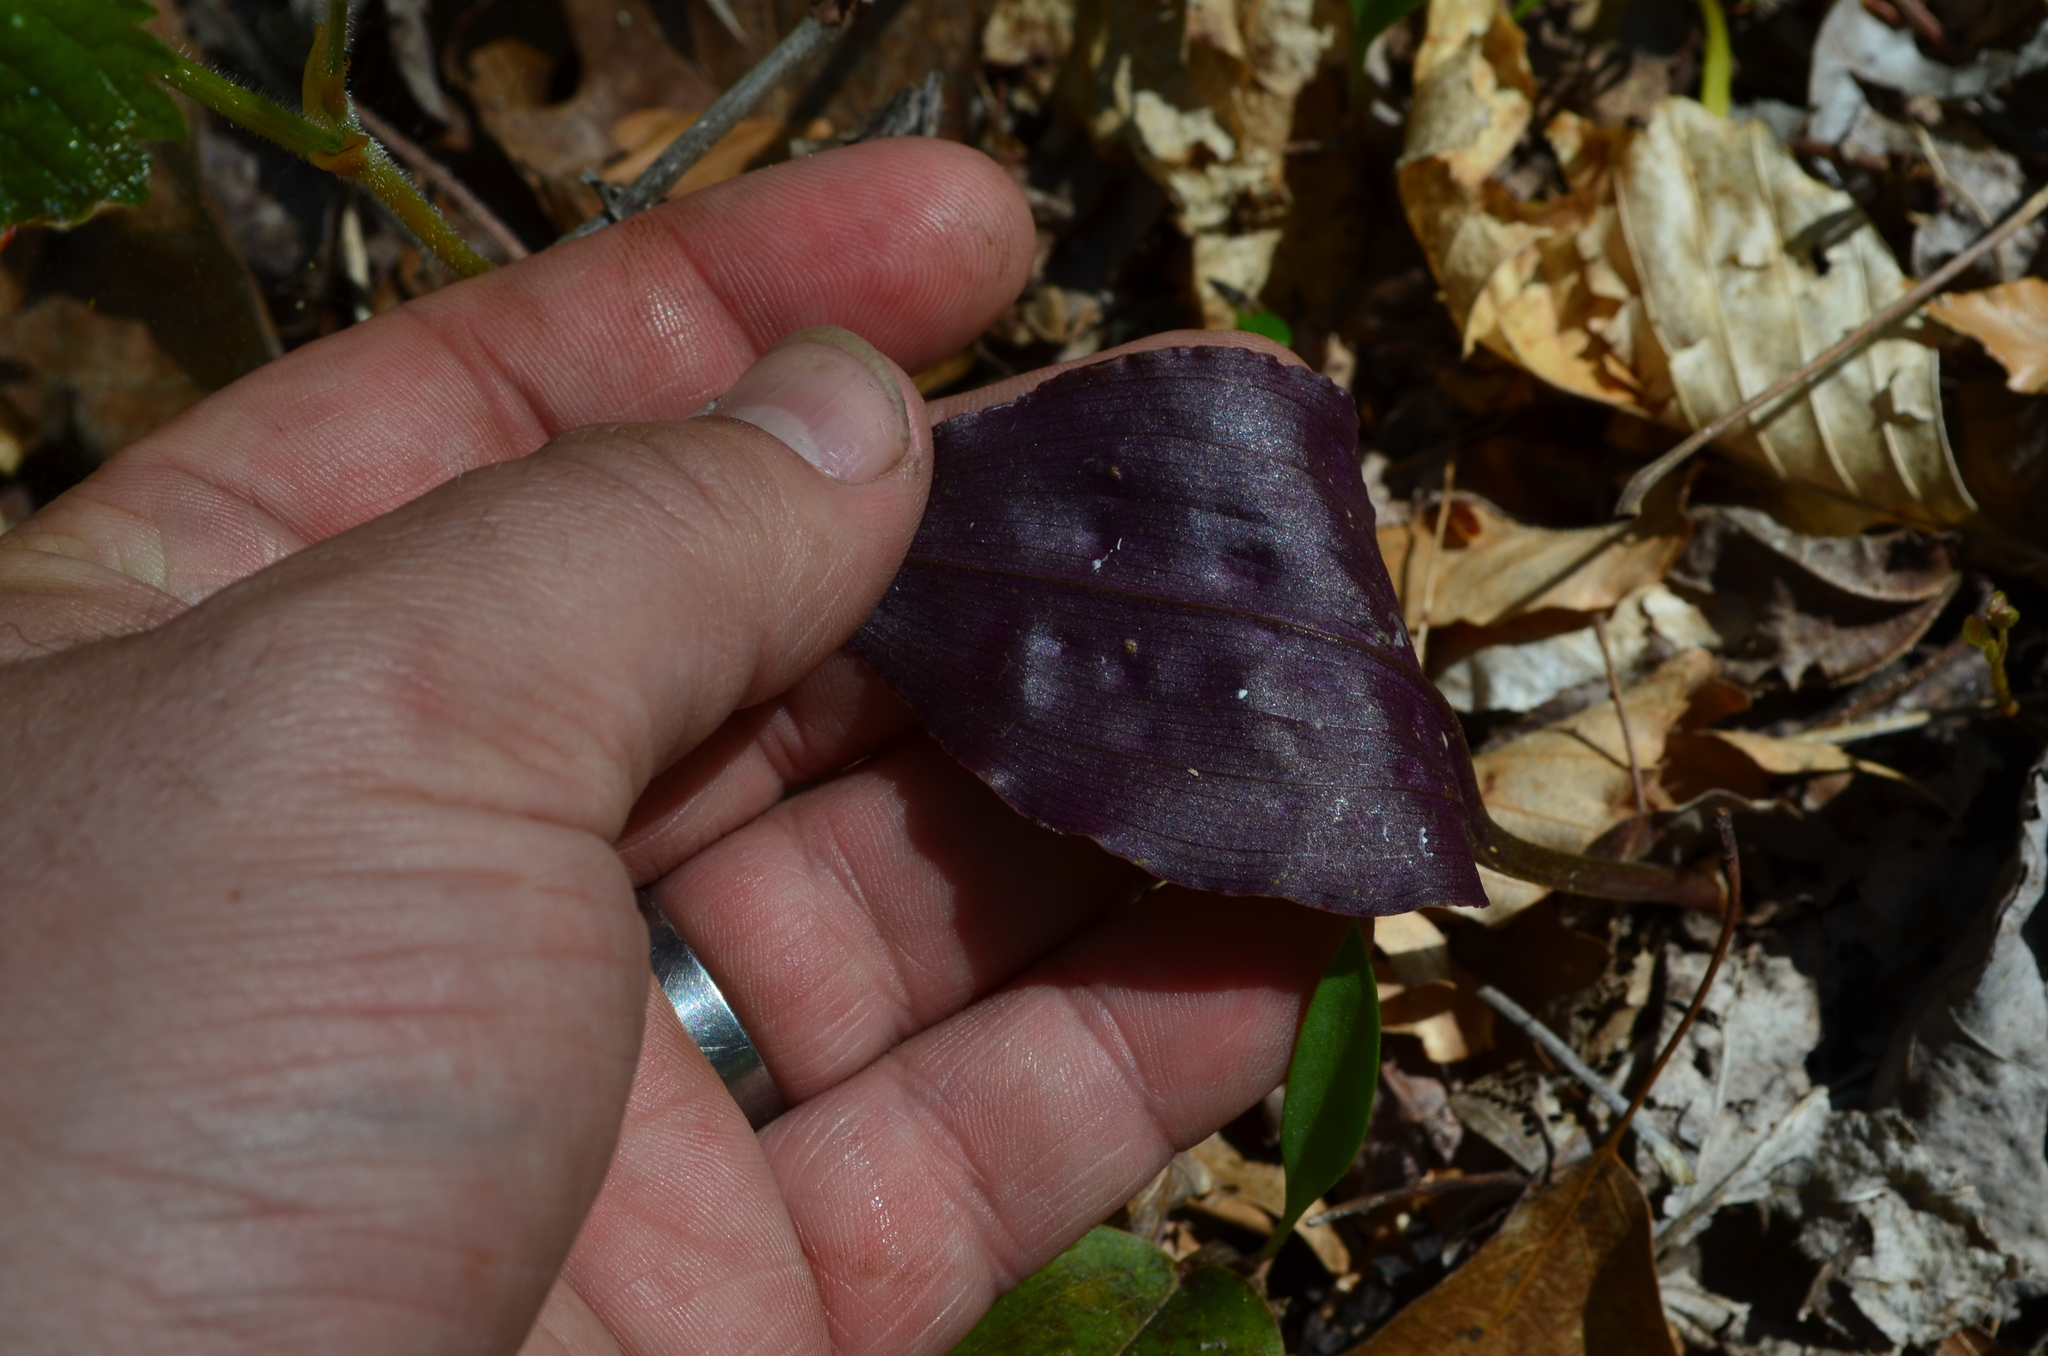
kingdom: Plantae
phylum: Tracheophyta
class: Liliopsida
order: Asparagales
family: Orchidaceae
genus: Tipularia
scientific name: Tipularia discolor
